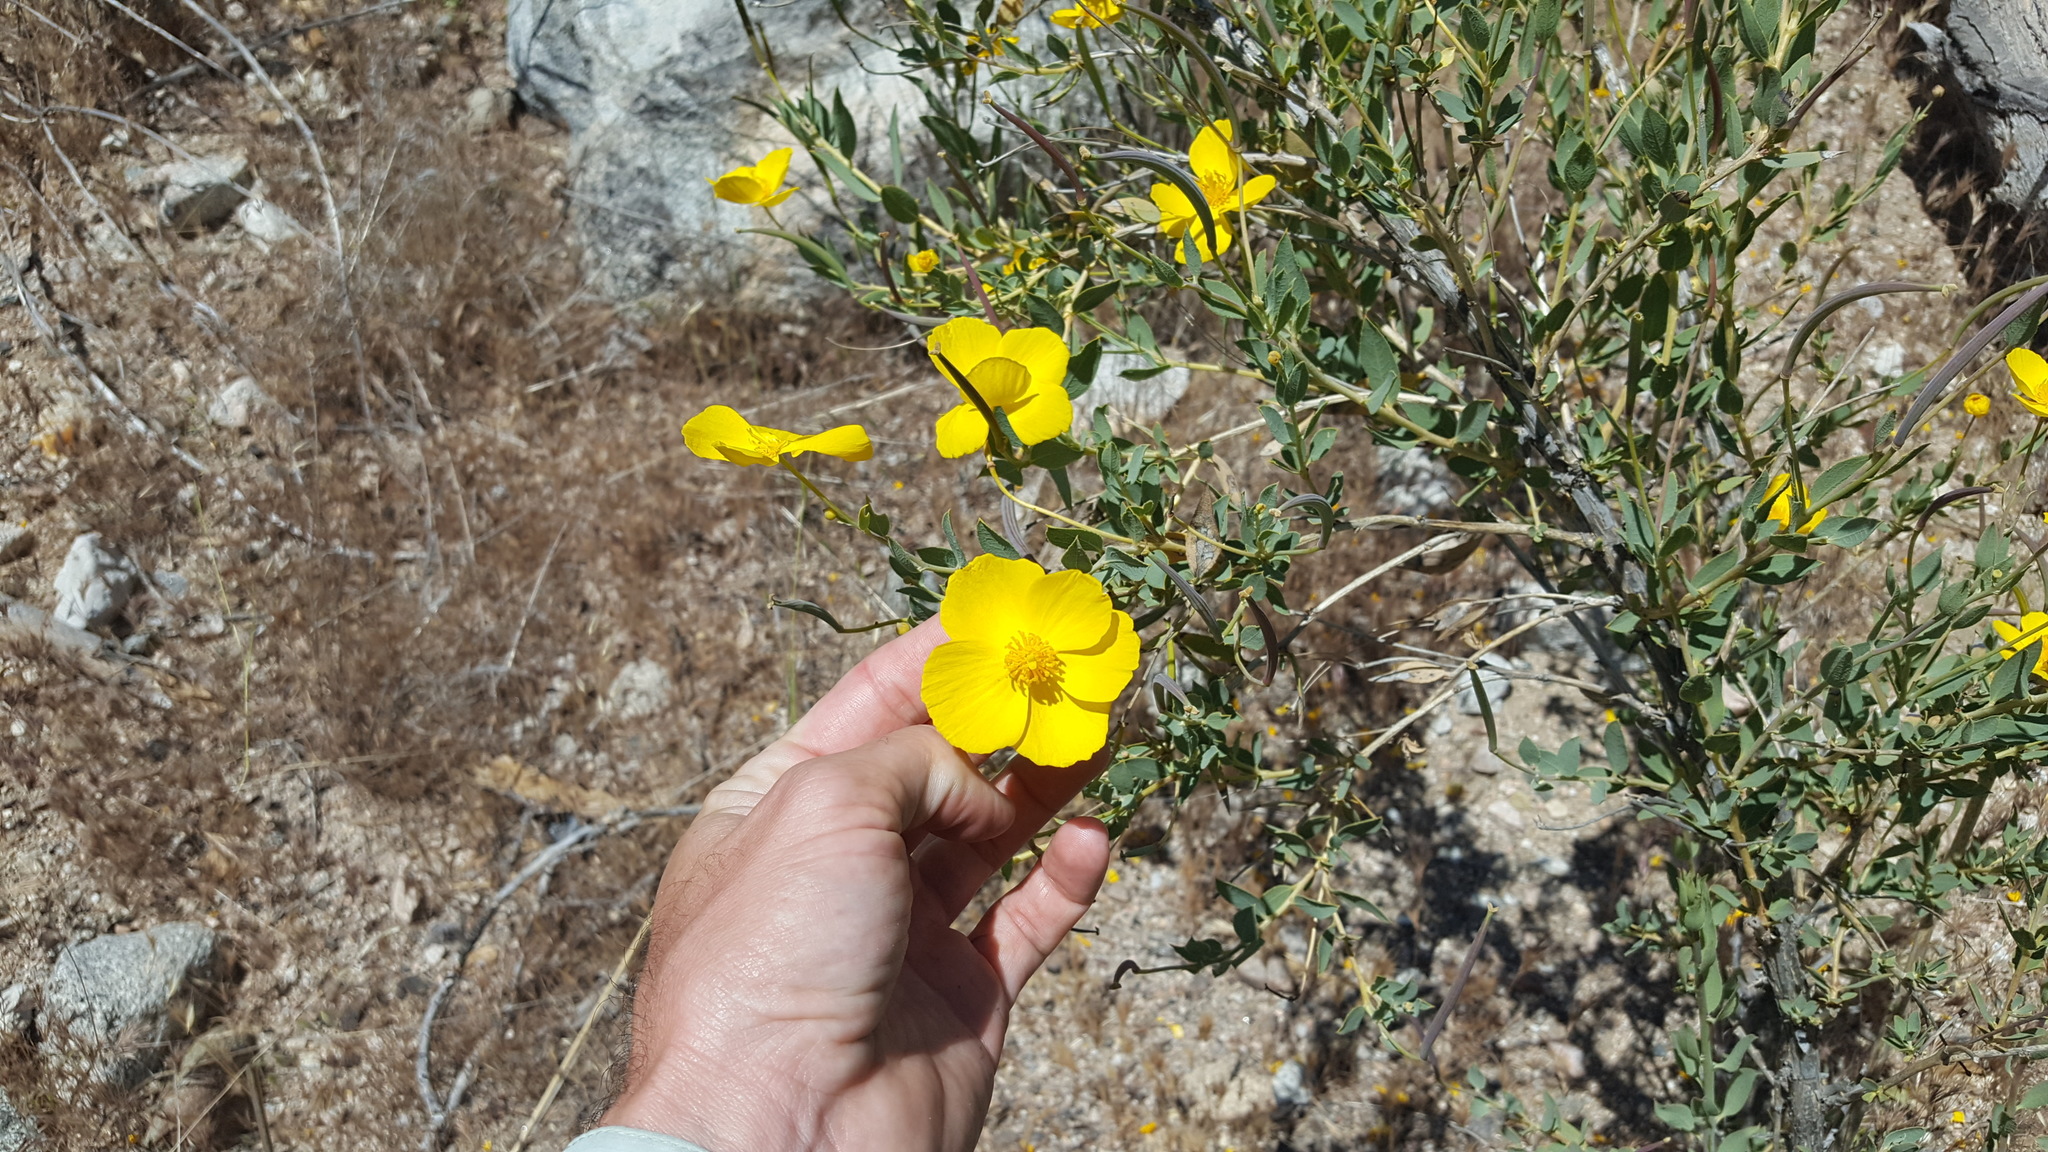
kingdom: Plantae
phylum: Tracheophyta
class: Magnoliopsida
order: Ranunculales
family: Papaveraceae
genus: Dendromecon
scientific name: Dendromecon rigida
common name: Tree poppy
